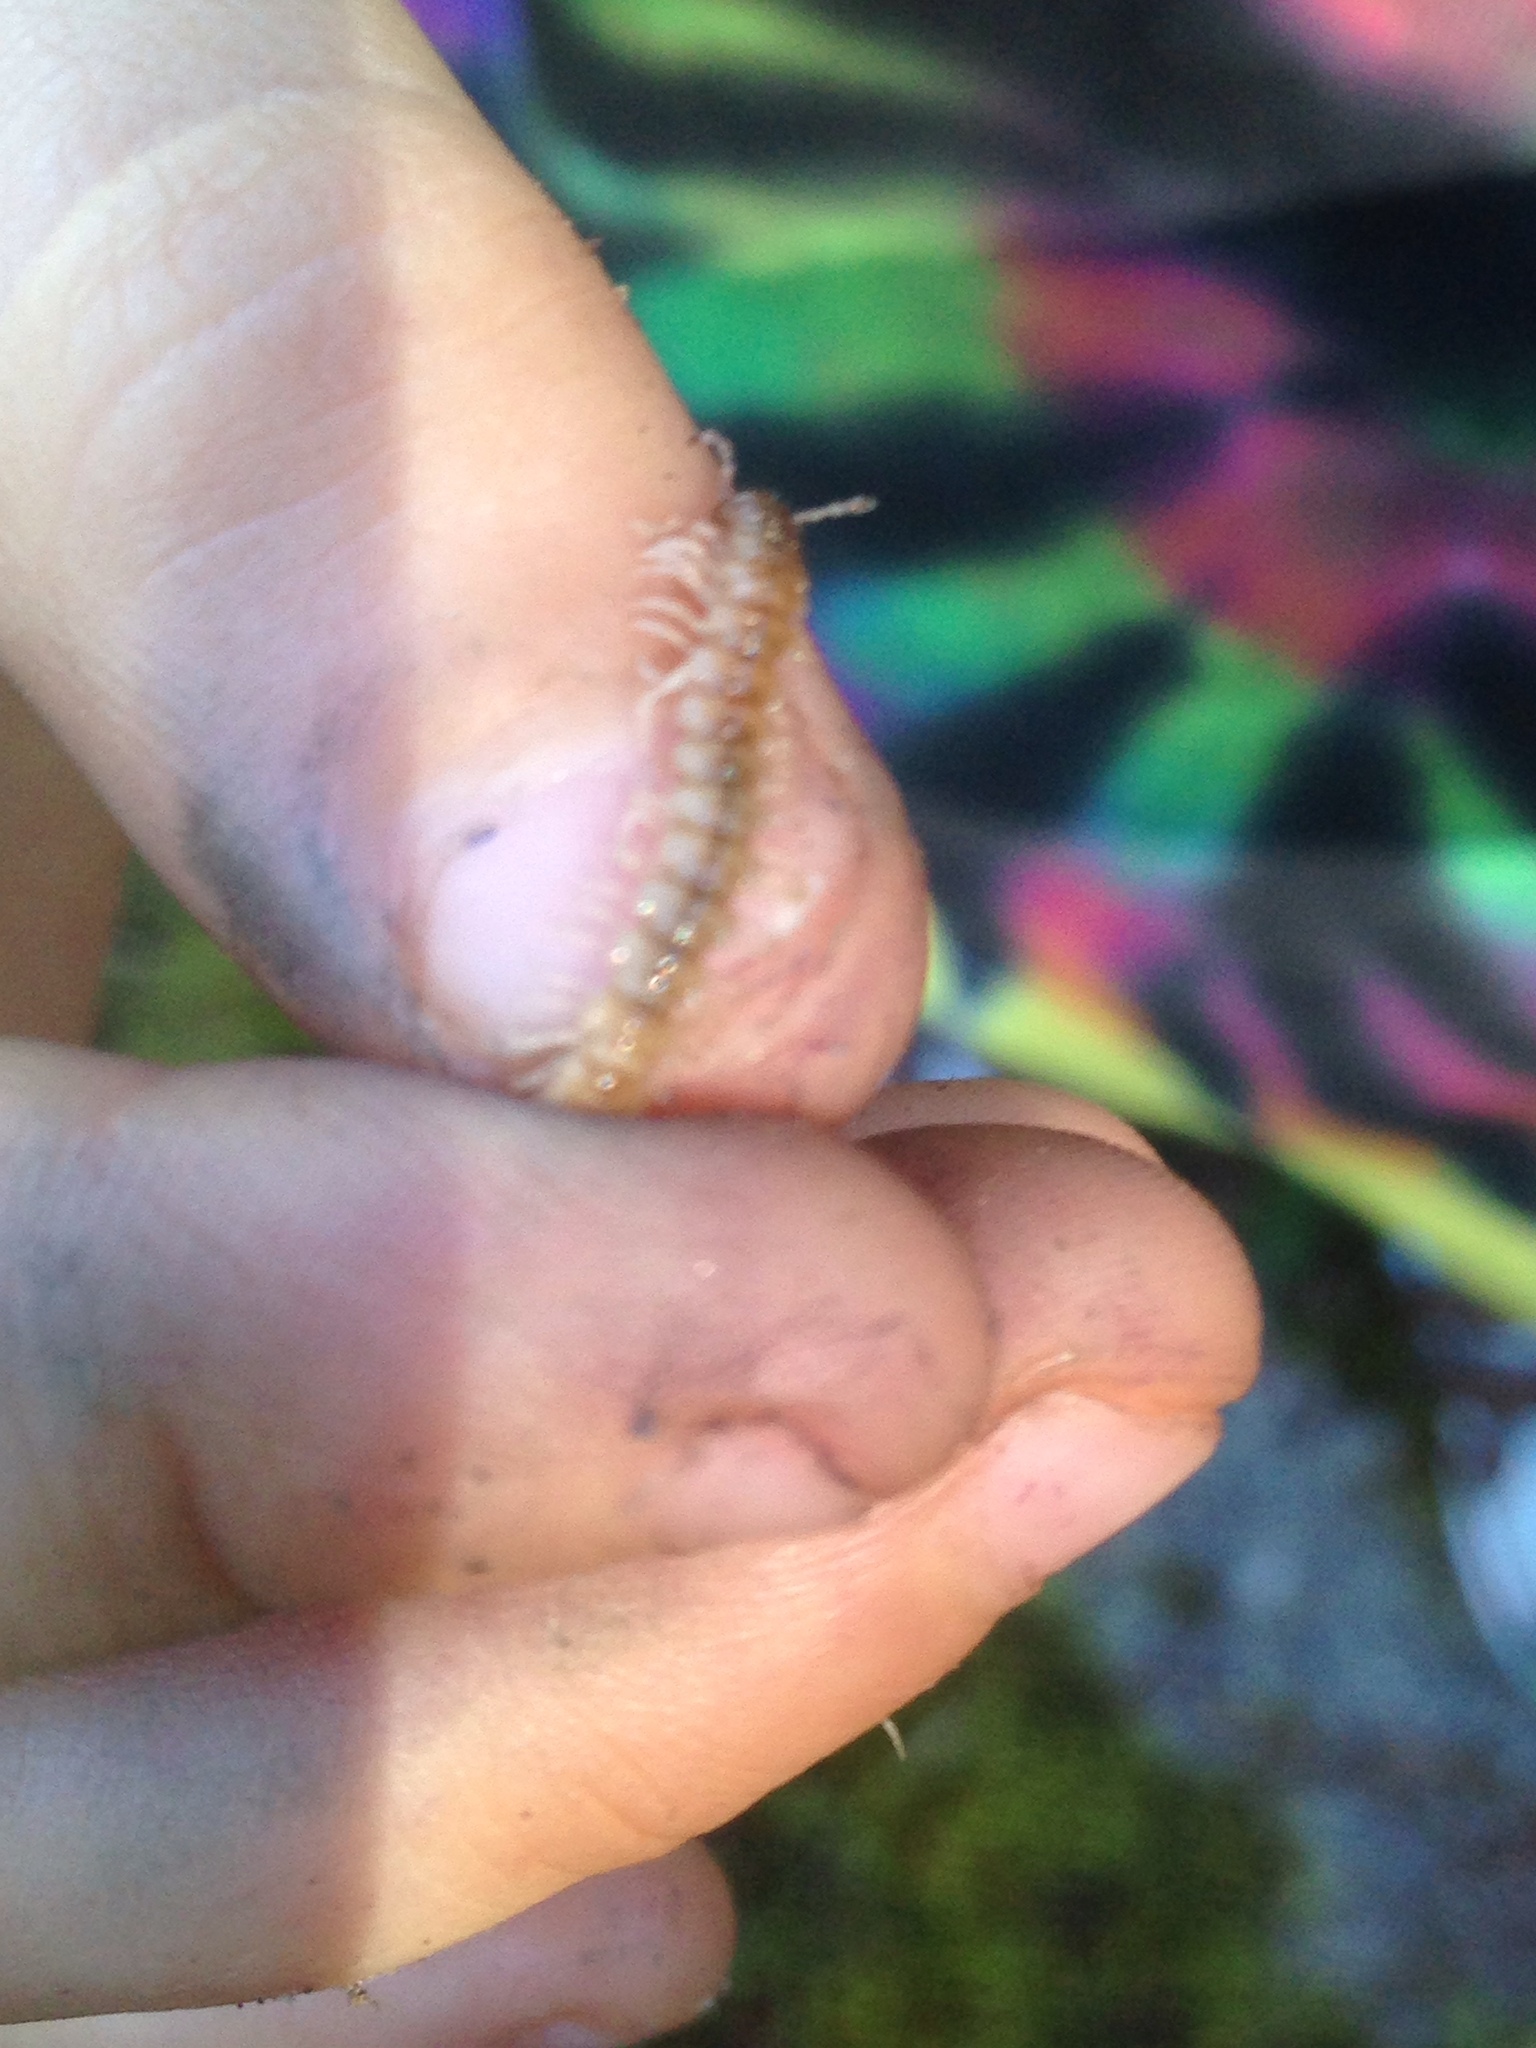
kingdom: Animalia
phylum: Arthropoda
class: Diplopoda
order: Polydesmida
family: Paradoxosomatidae
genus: Oxidus
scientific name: Oxidus gracilis
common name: Greenhouse millipede
